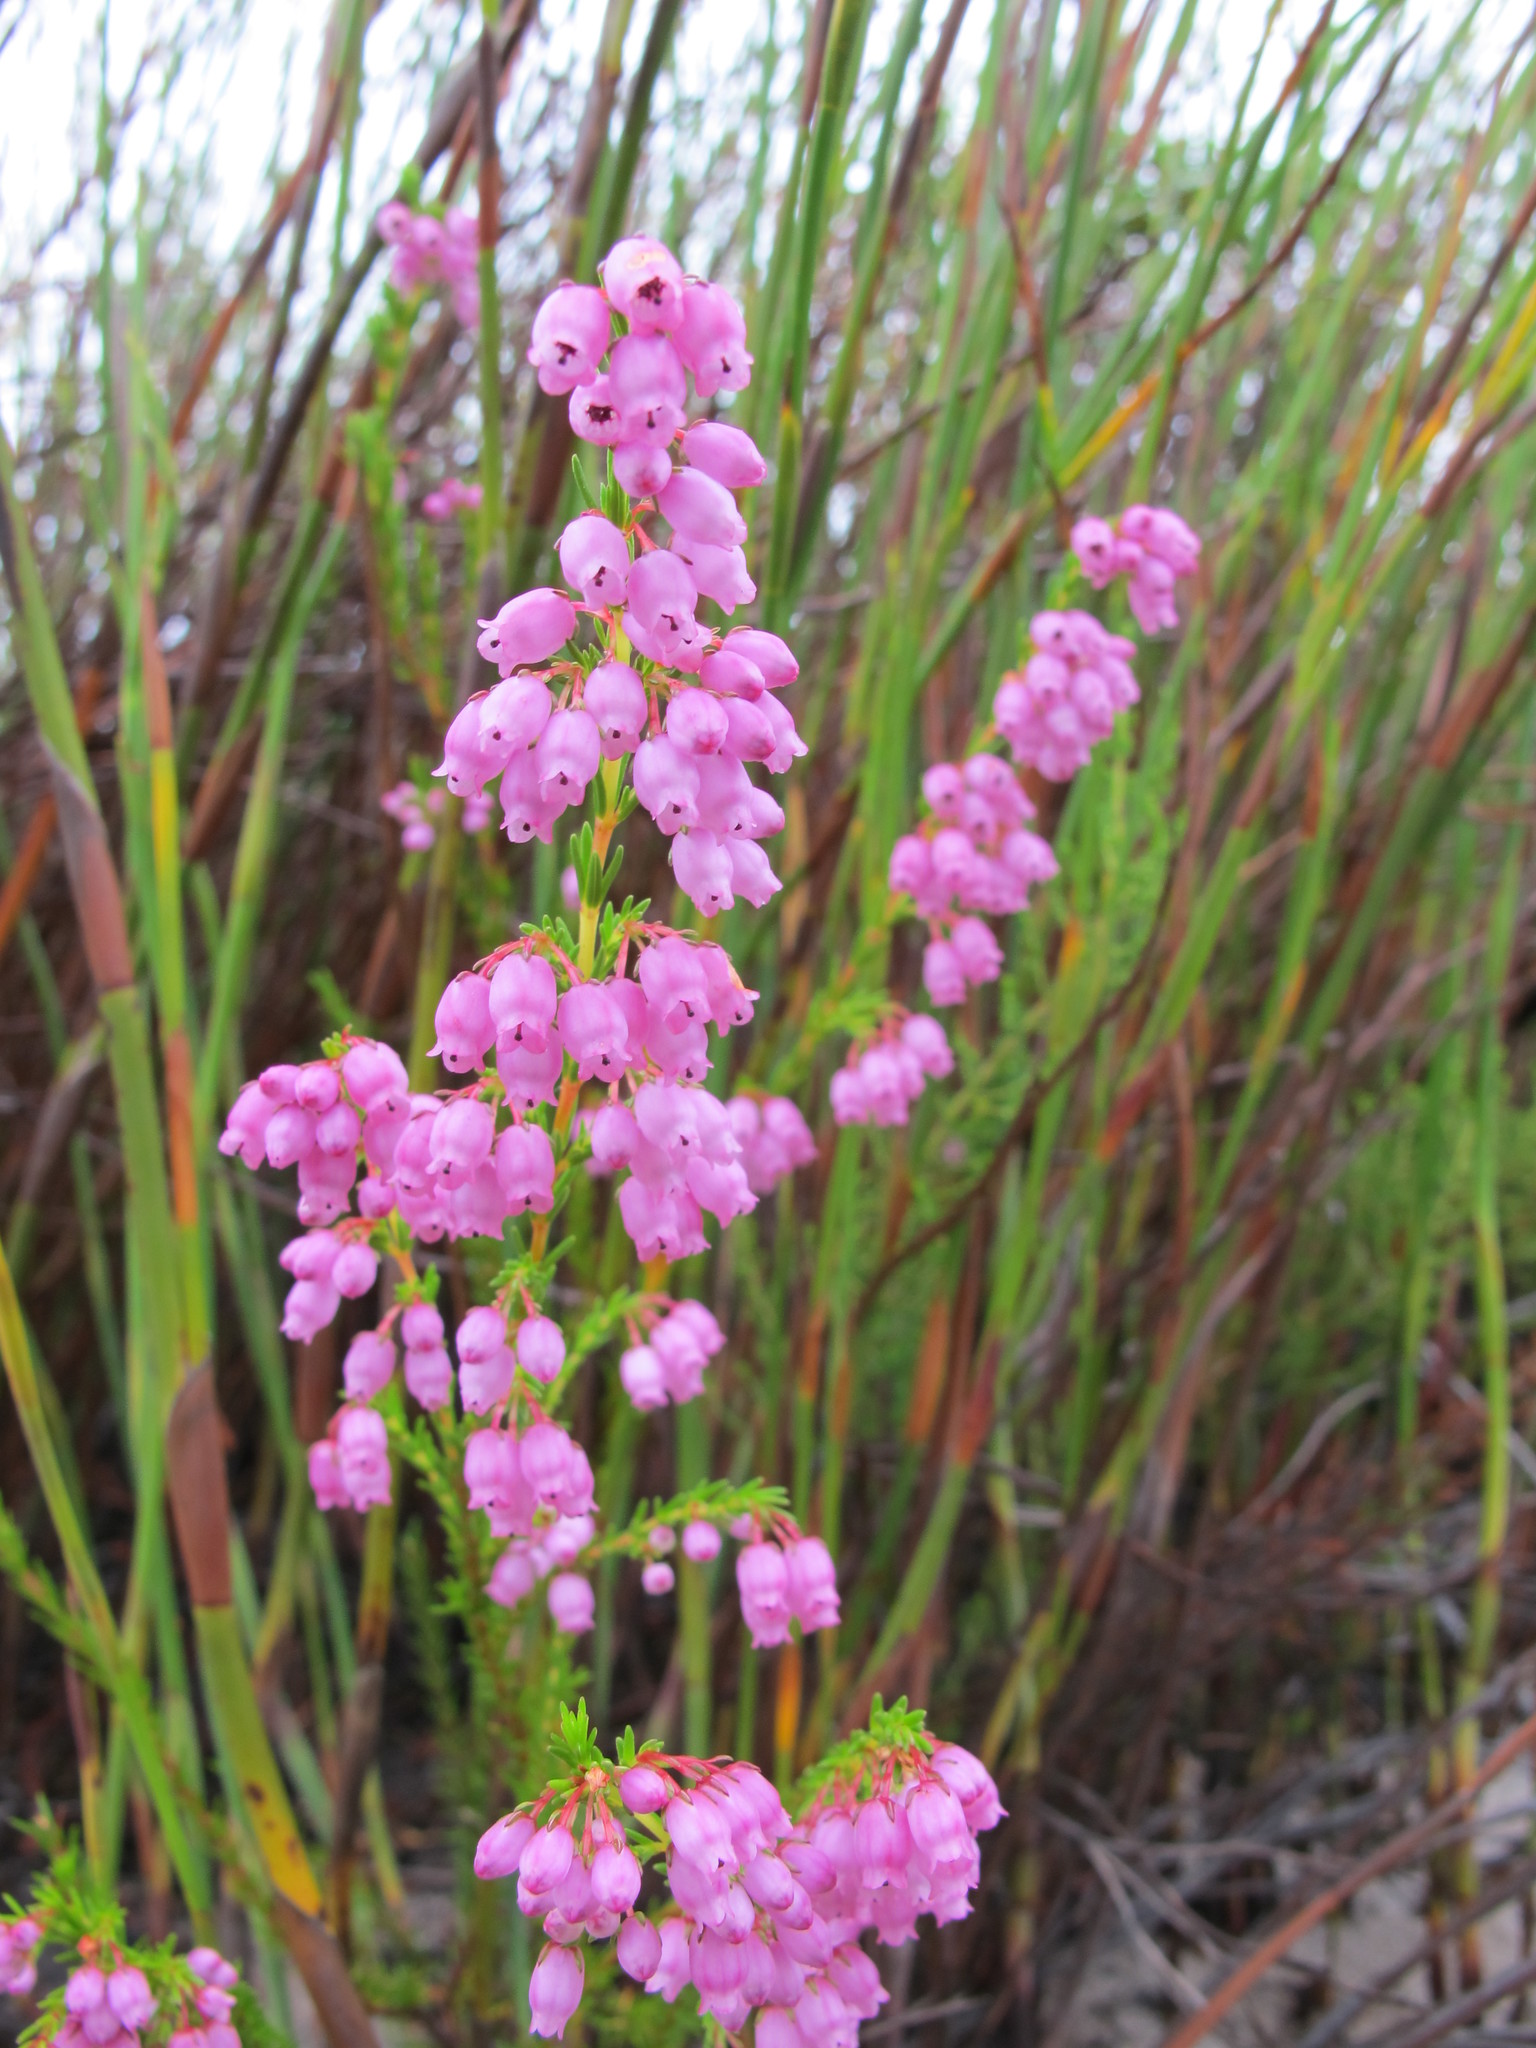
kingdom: Plantae
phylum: Tracheophyta
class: Magnoliopsida
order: Ericales
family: Ericaceae
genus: Erica
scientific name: Erica laeta
